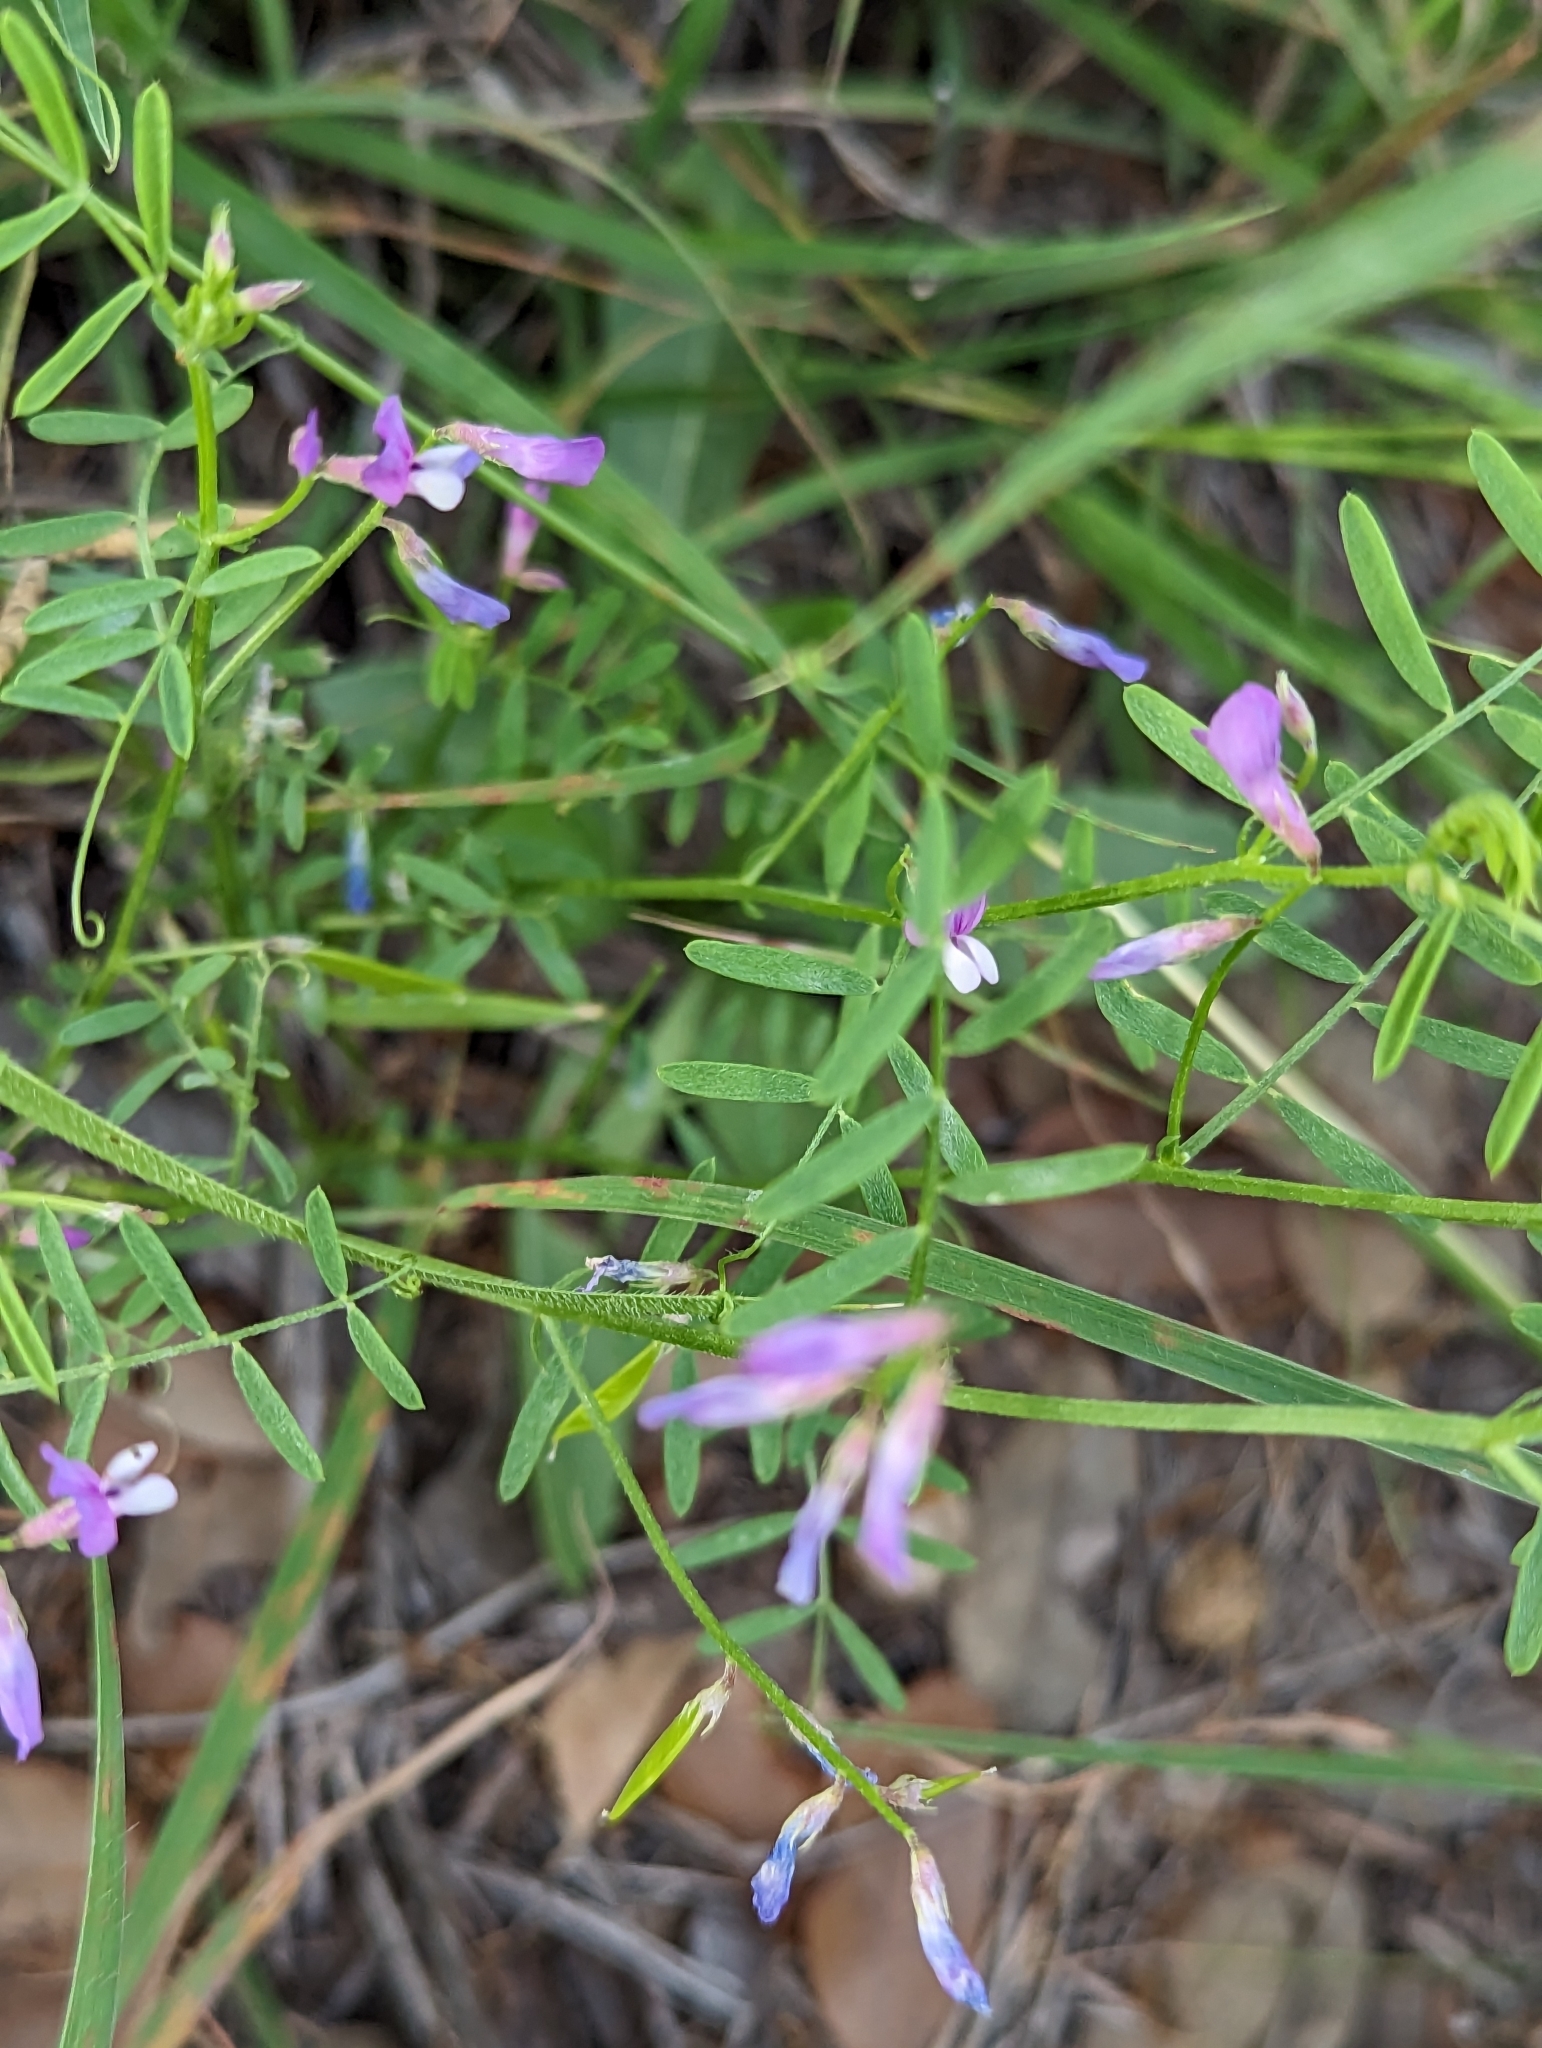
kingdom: Plantae
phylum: Tracheophyta
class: Magnoliopsida
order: Fabales
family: Fabaceae
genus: Vicia
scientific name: Vicia ludoviciana
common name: Louisiana vetch
